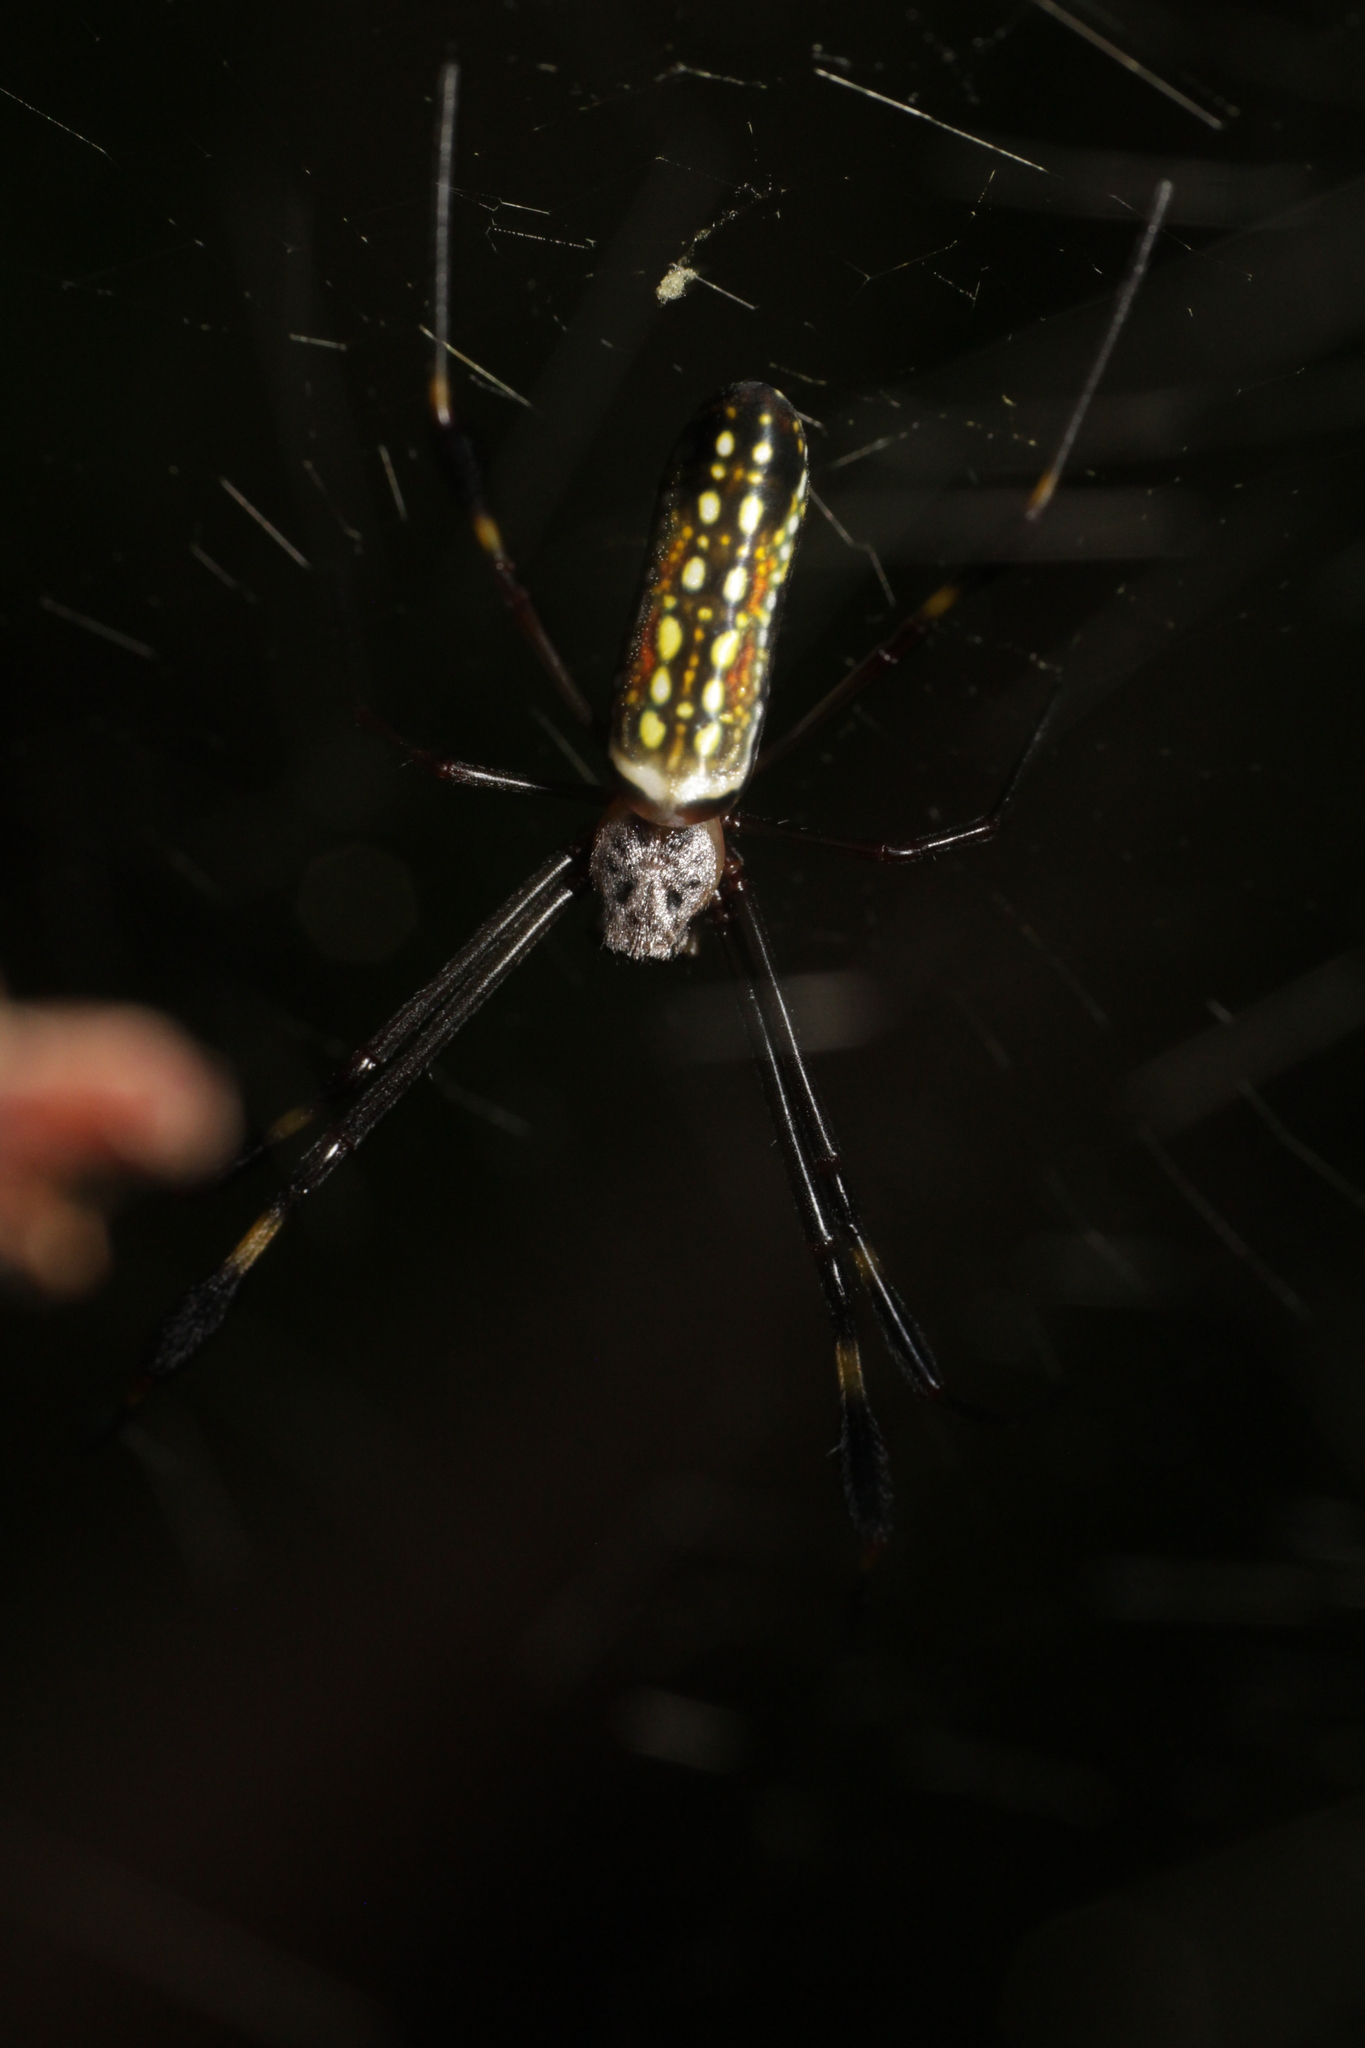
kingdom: Animalia
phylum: Arthropoda
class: Arachnida
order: Araneae
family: Araneidae
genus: Trichonephila
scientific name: Trichonephila clavipes
